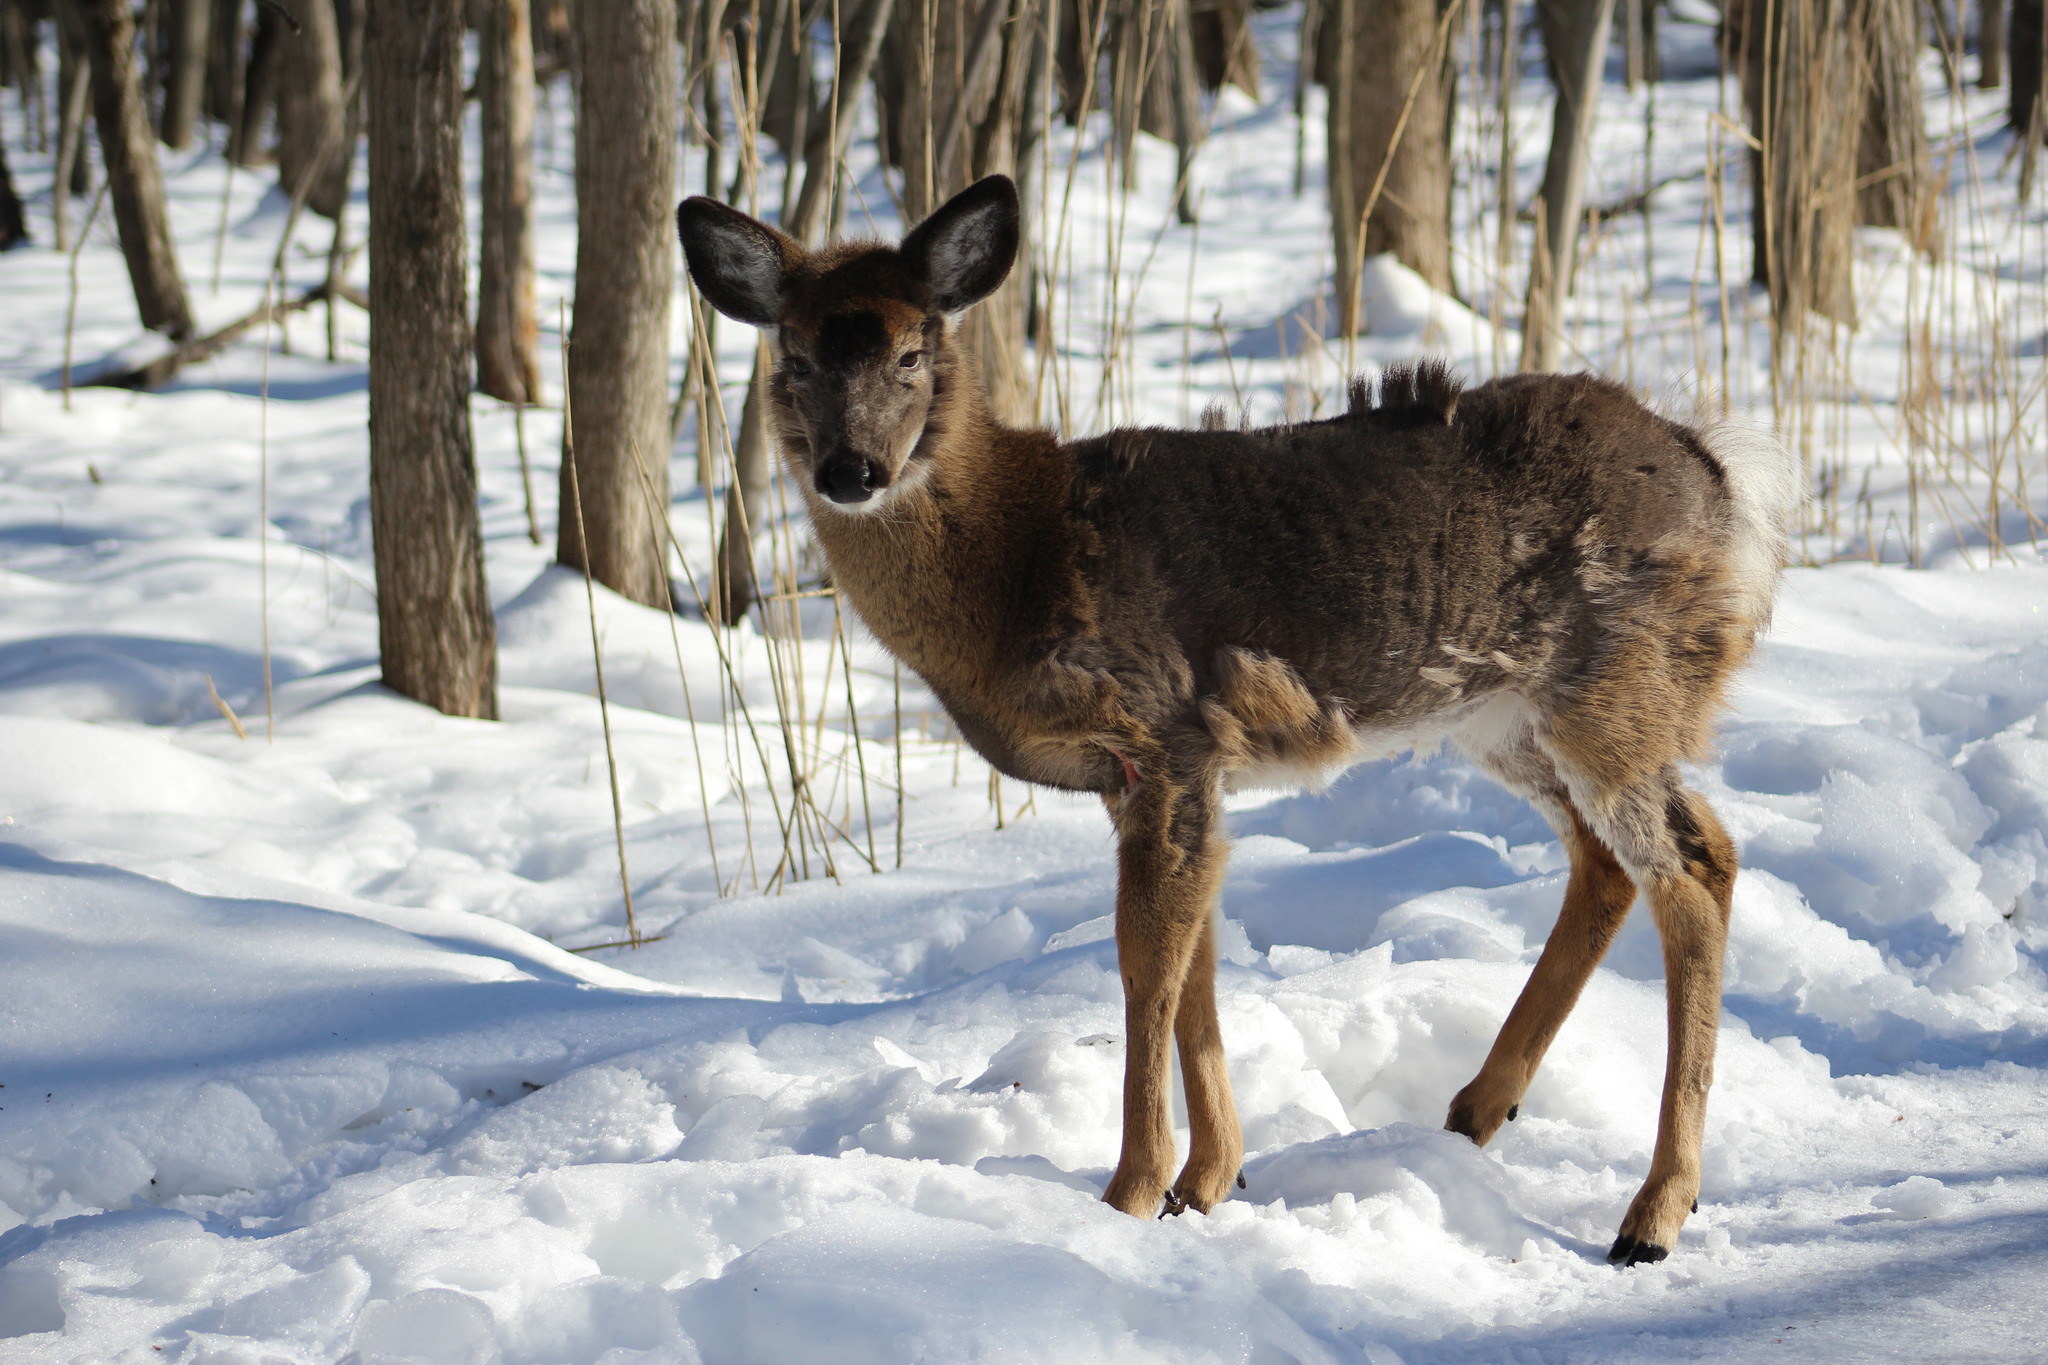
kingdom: Animalia
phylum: Chordata
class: Mammalia
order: Artiodactyla
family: Cervidae
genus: Odocoileus
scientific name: Odocoileus virginianus
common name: White-tailed deer
